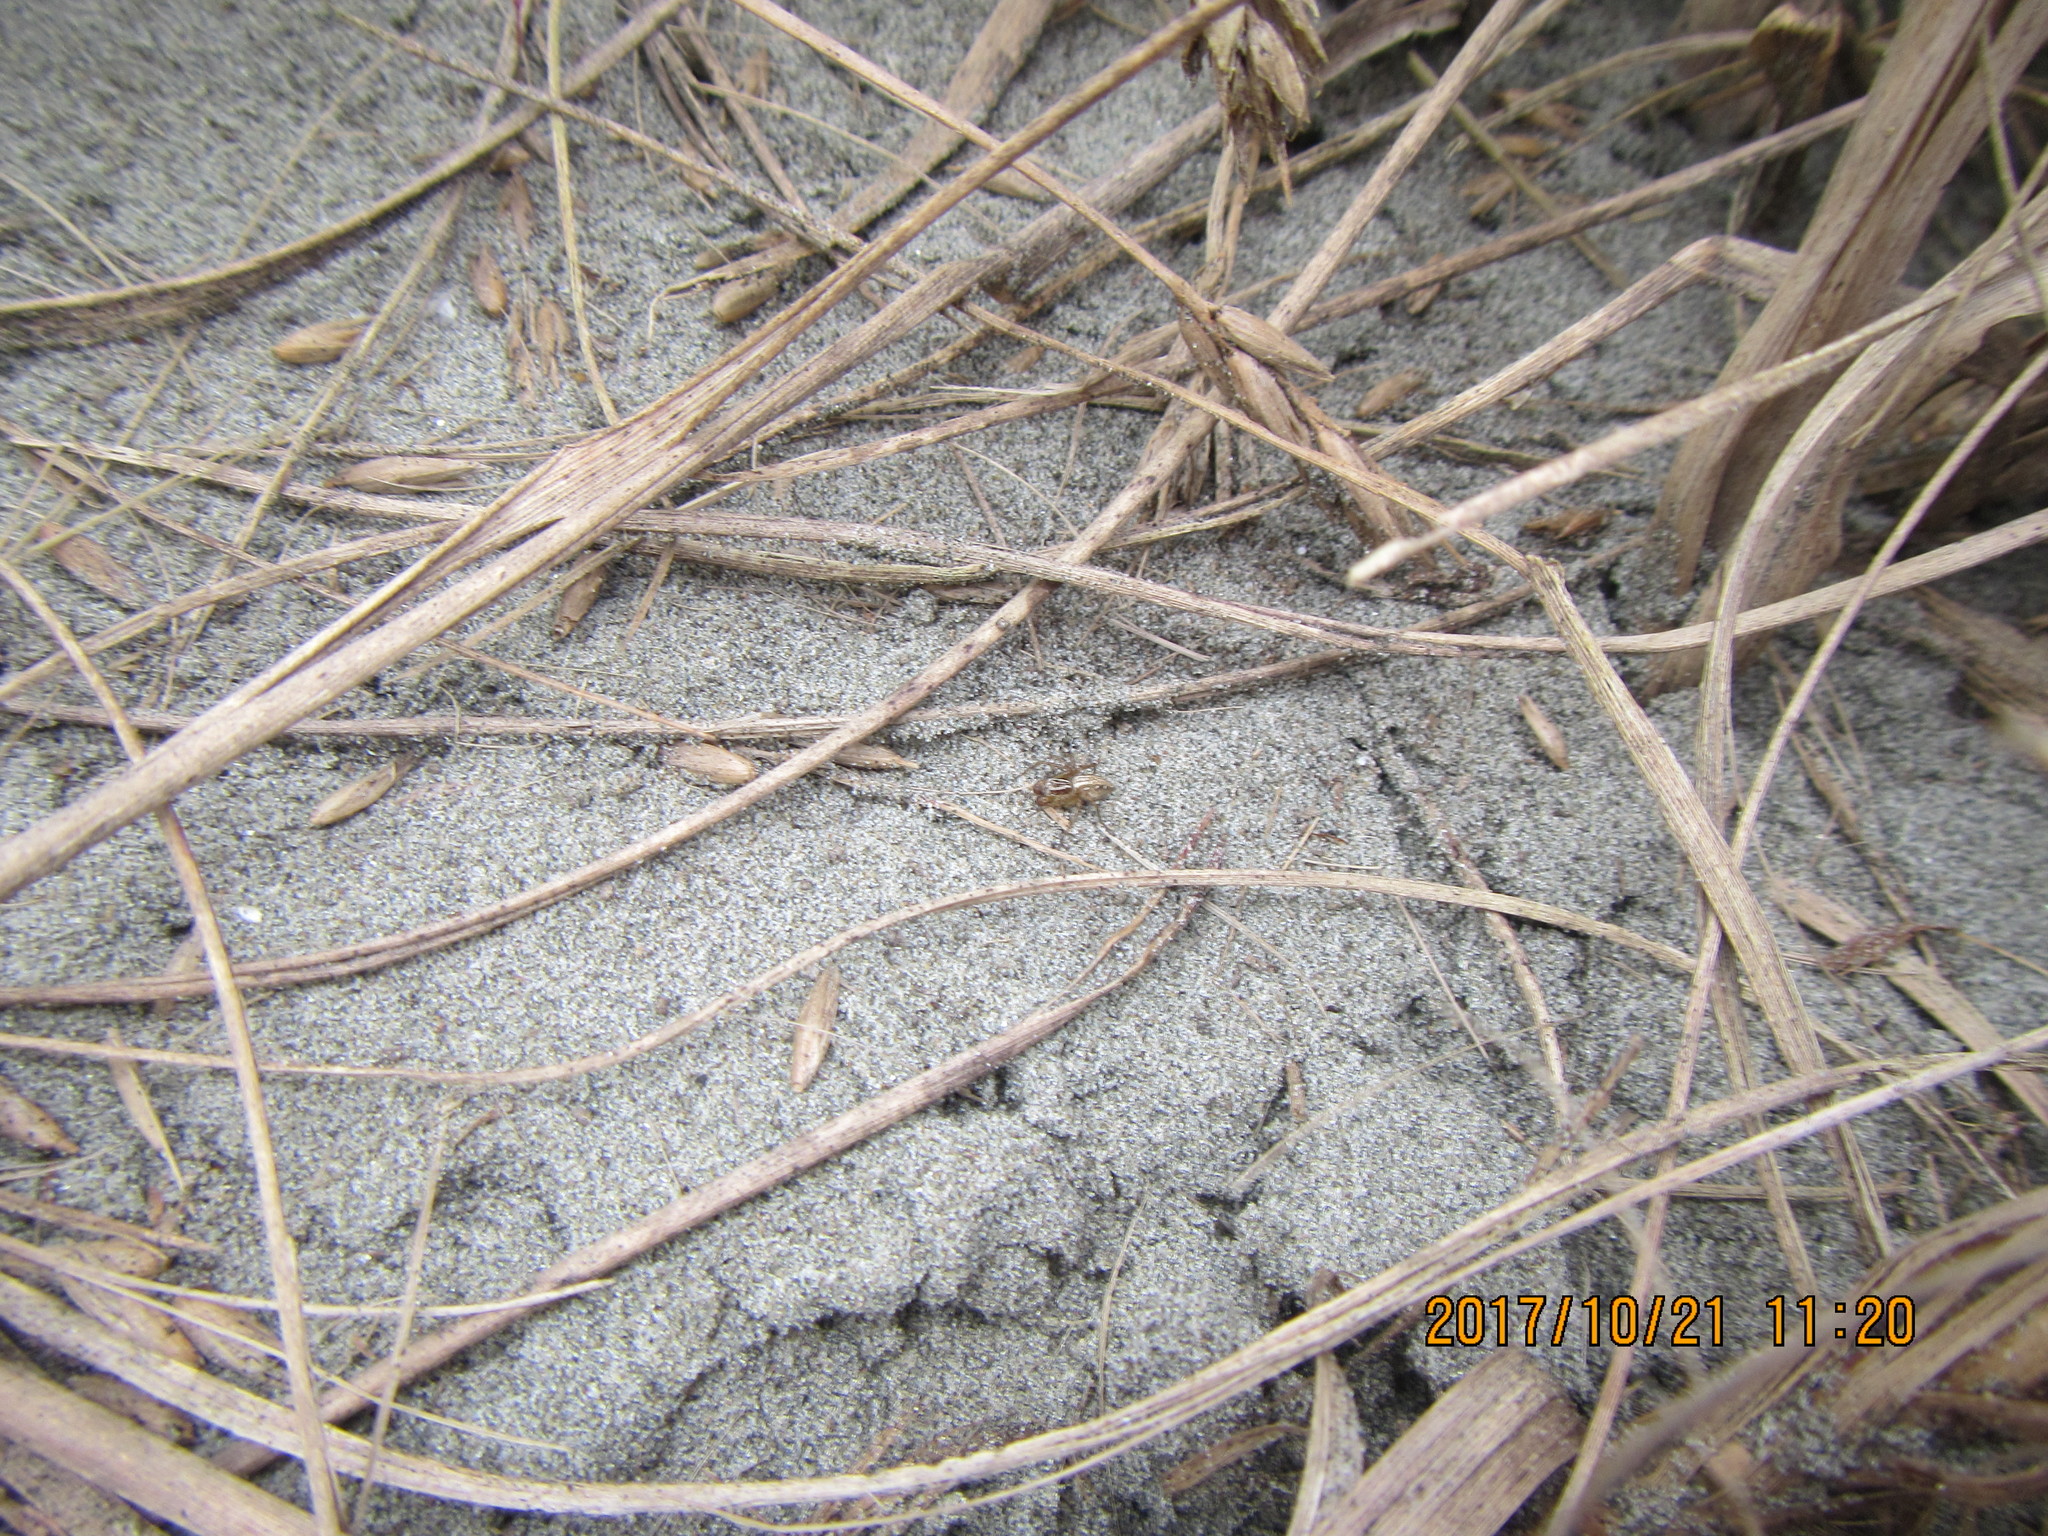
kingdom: Animalia
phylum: Arthropoda
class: Arachnida
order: Araneae
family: Oxyopidae
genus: Oxyopes
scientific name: Oxyopes gracilipes
